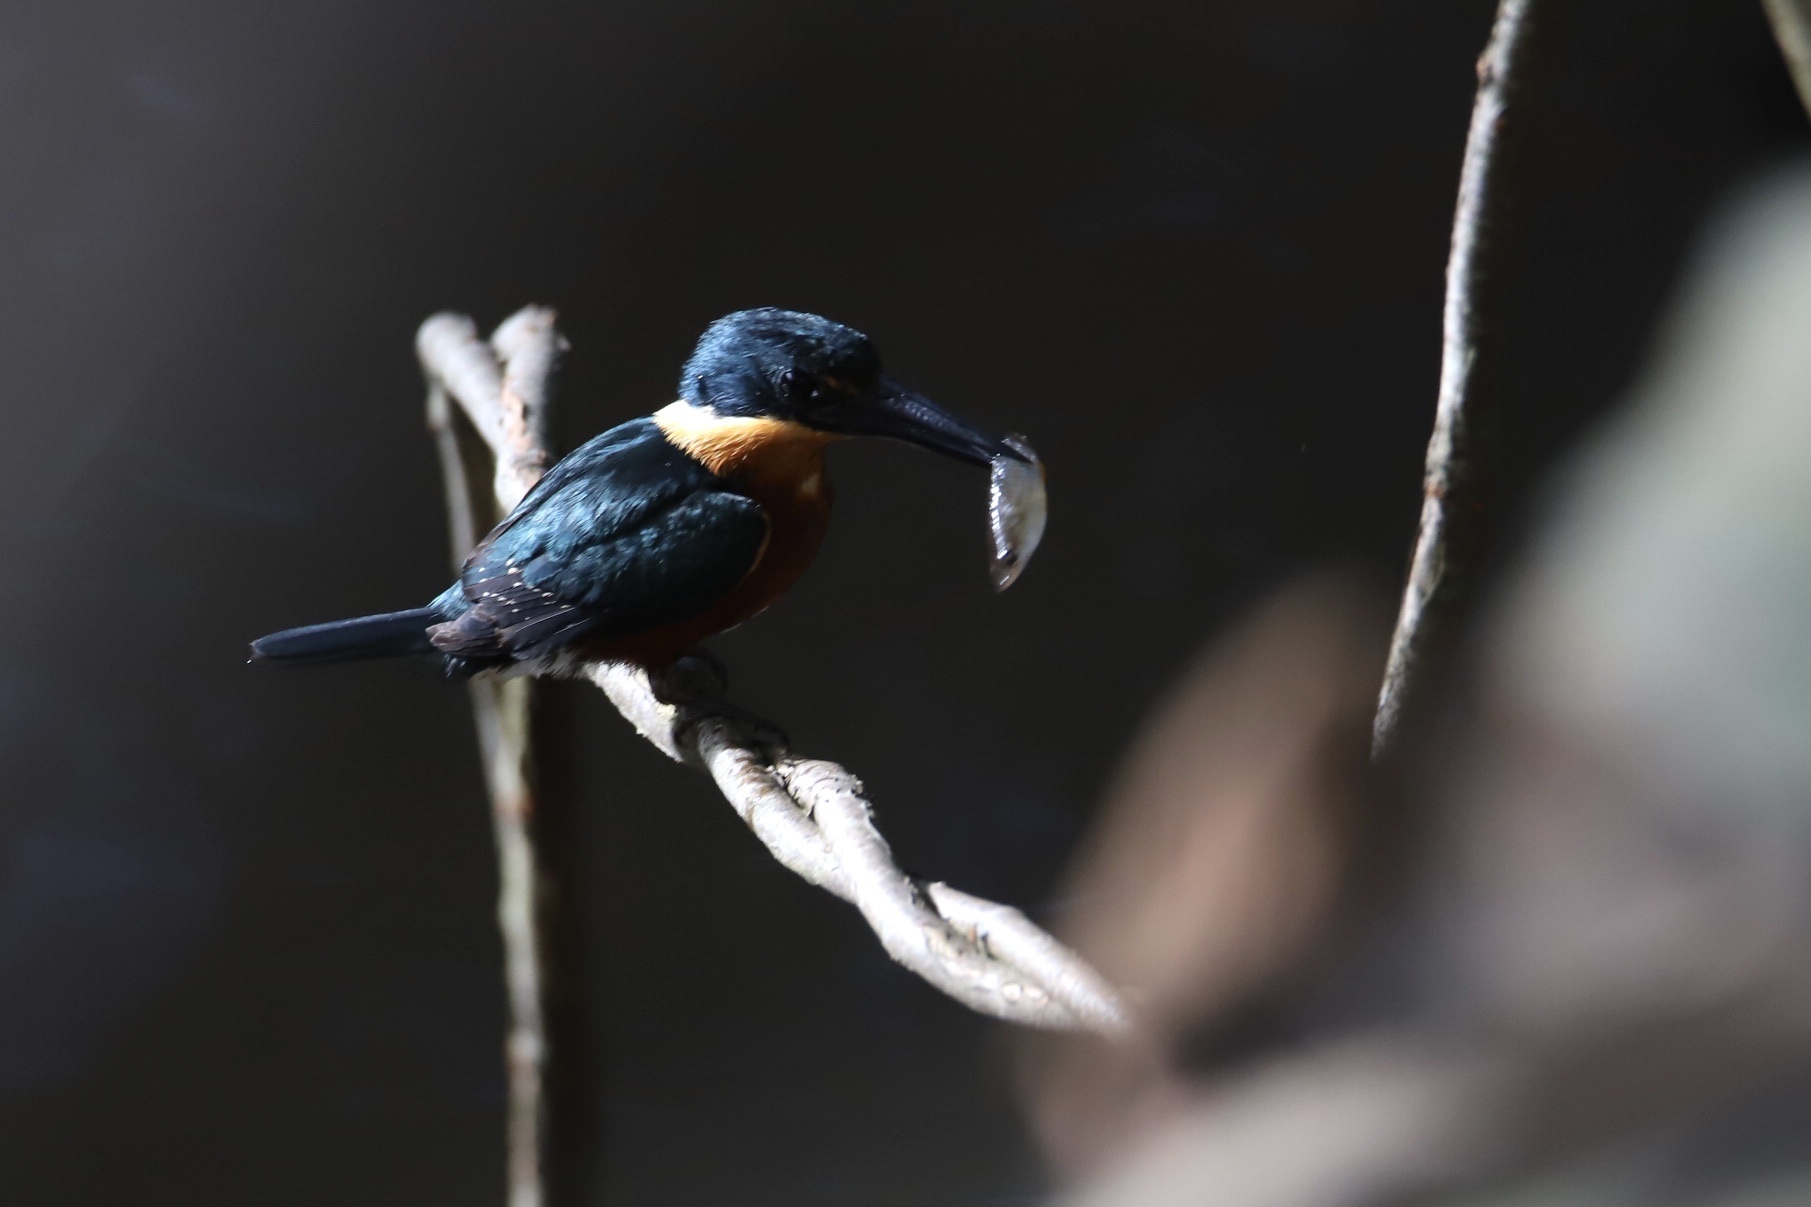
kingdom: Animalia
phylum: Chordata
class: Aves
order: Coraciiformes
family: Alcedinidae
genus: Chloroceryle
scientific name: Chloroceryle aenea
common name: American pygmy kingfisher
